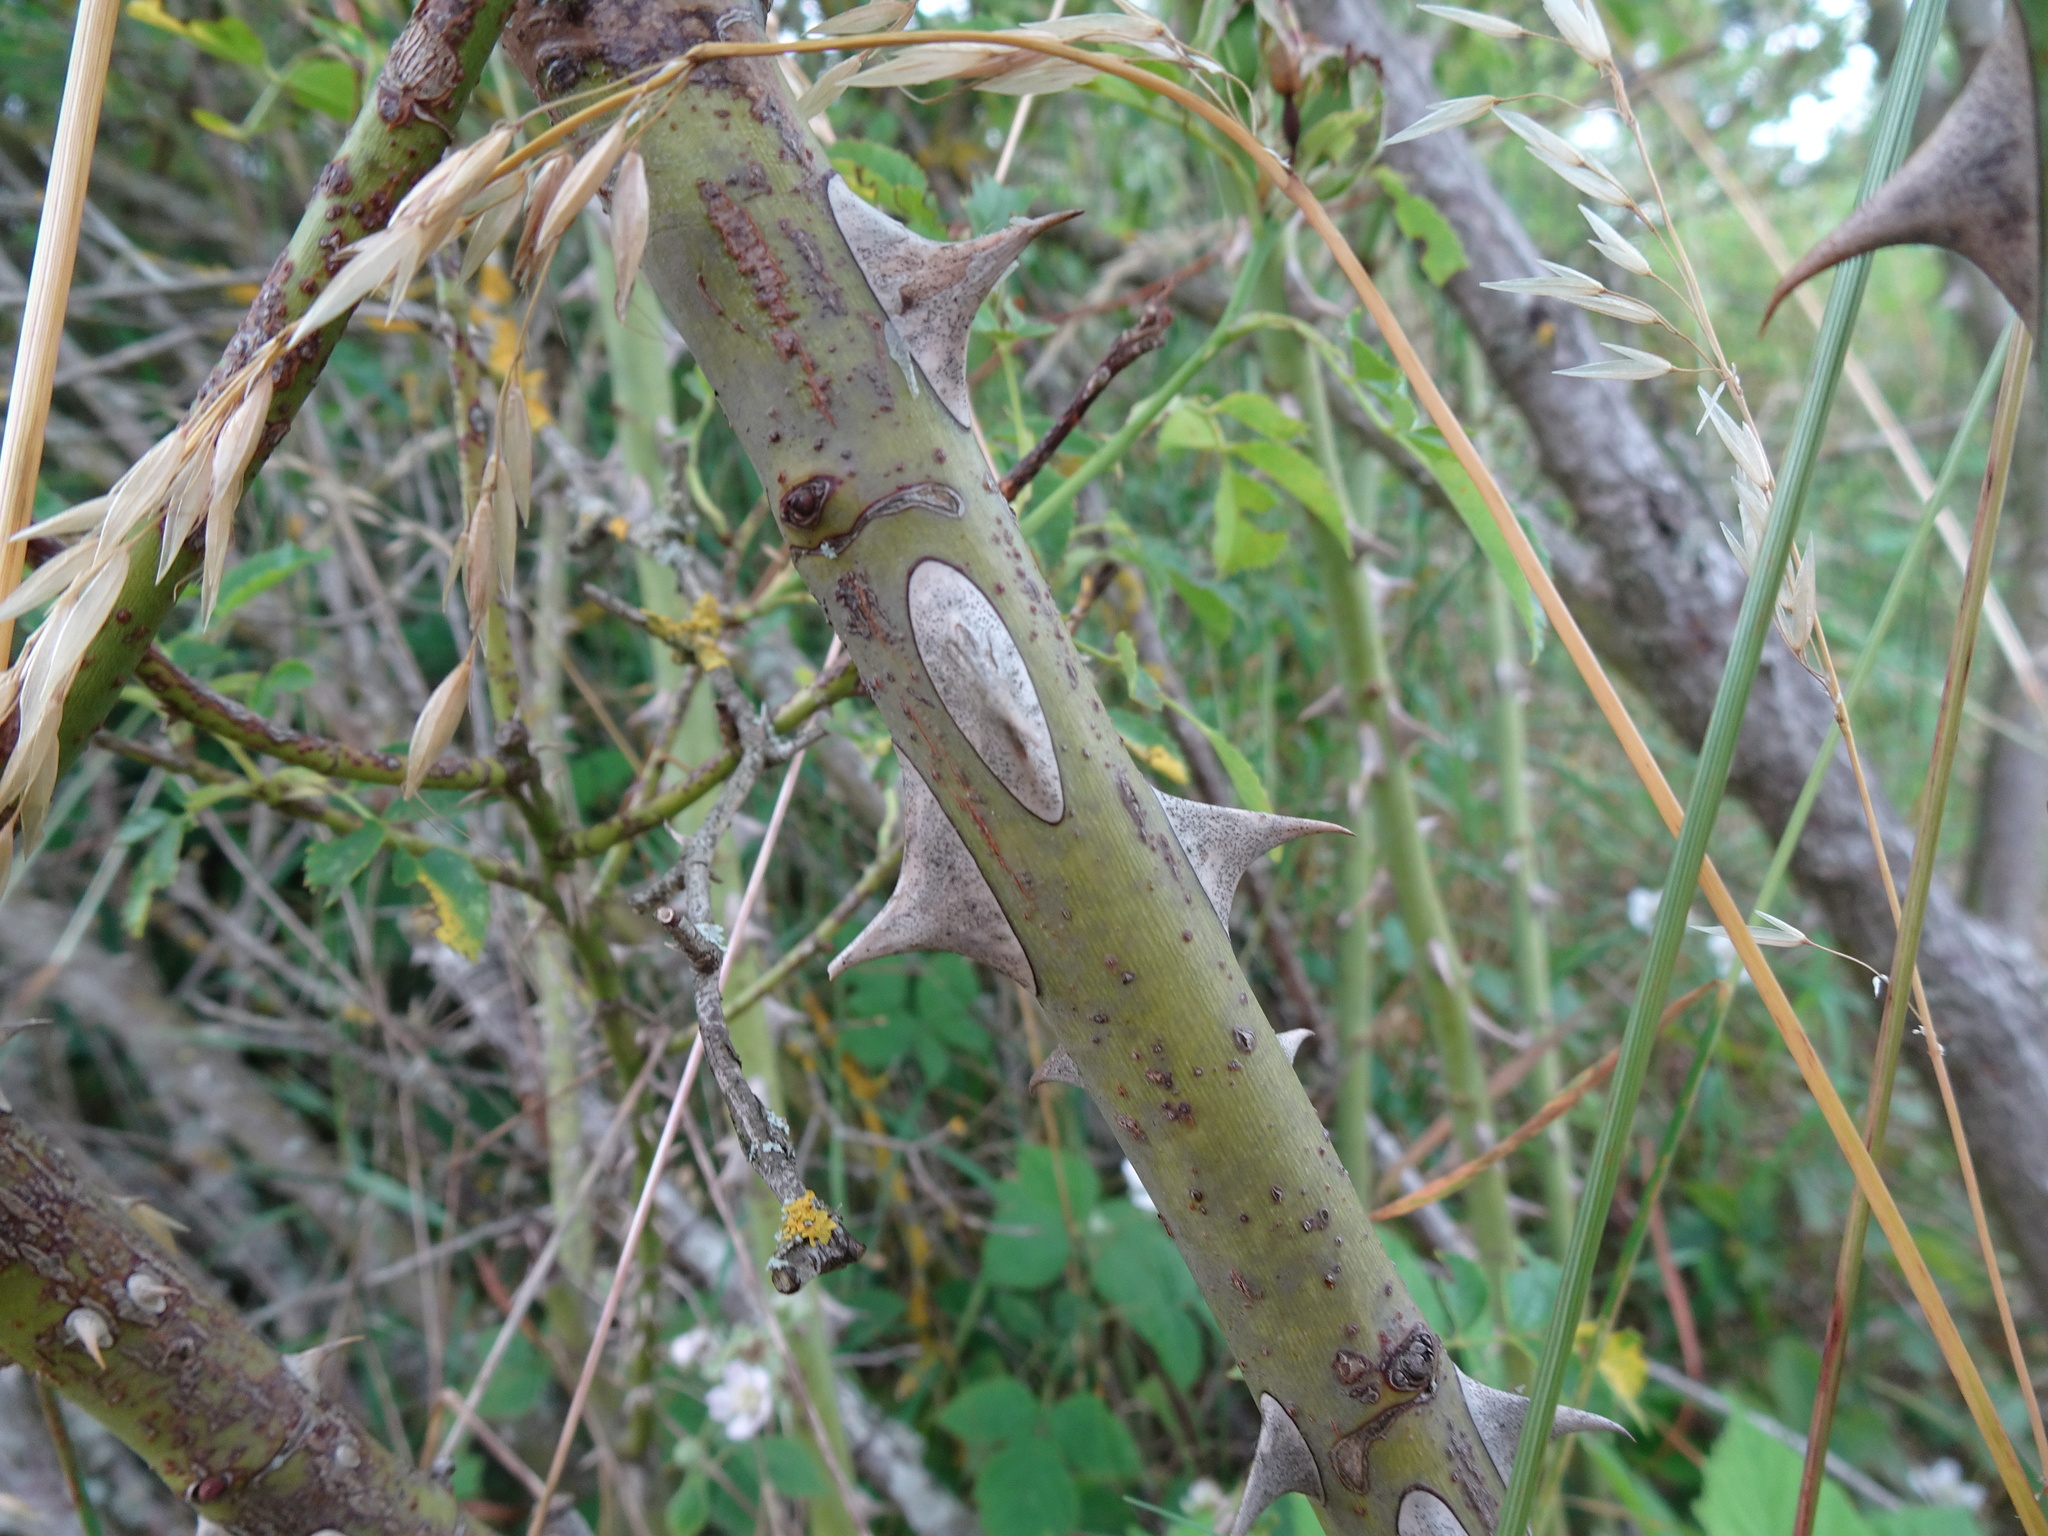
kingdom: Plantae
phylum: Tracheophyta
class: Magnoliopsida
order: Rosales
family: Rosaceae
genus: Rosa
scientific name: Rosa canina
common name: Dog rose
